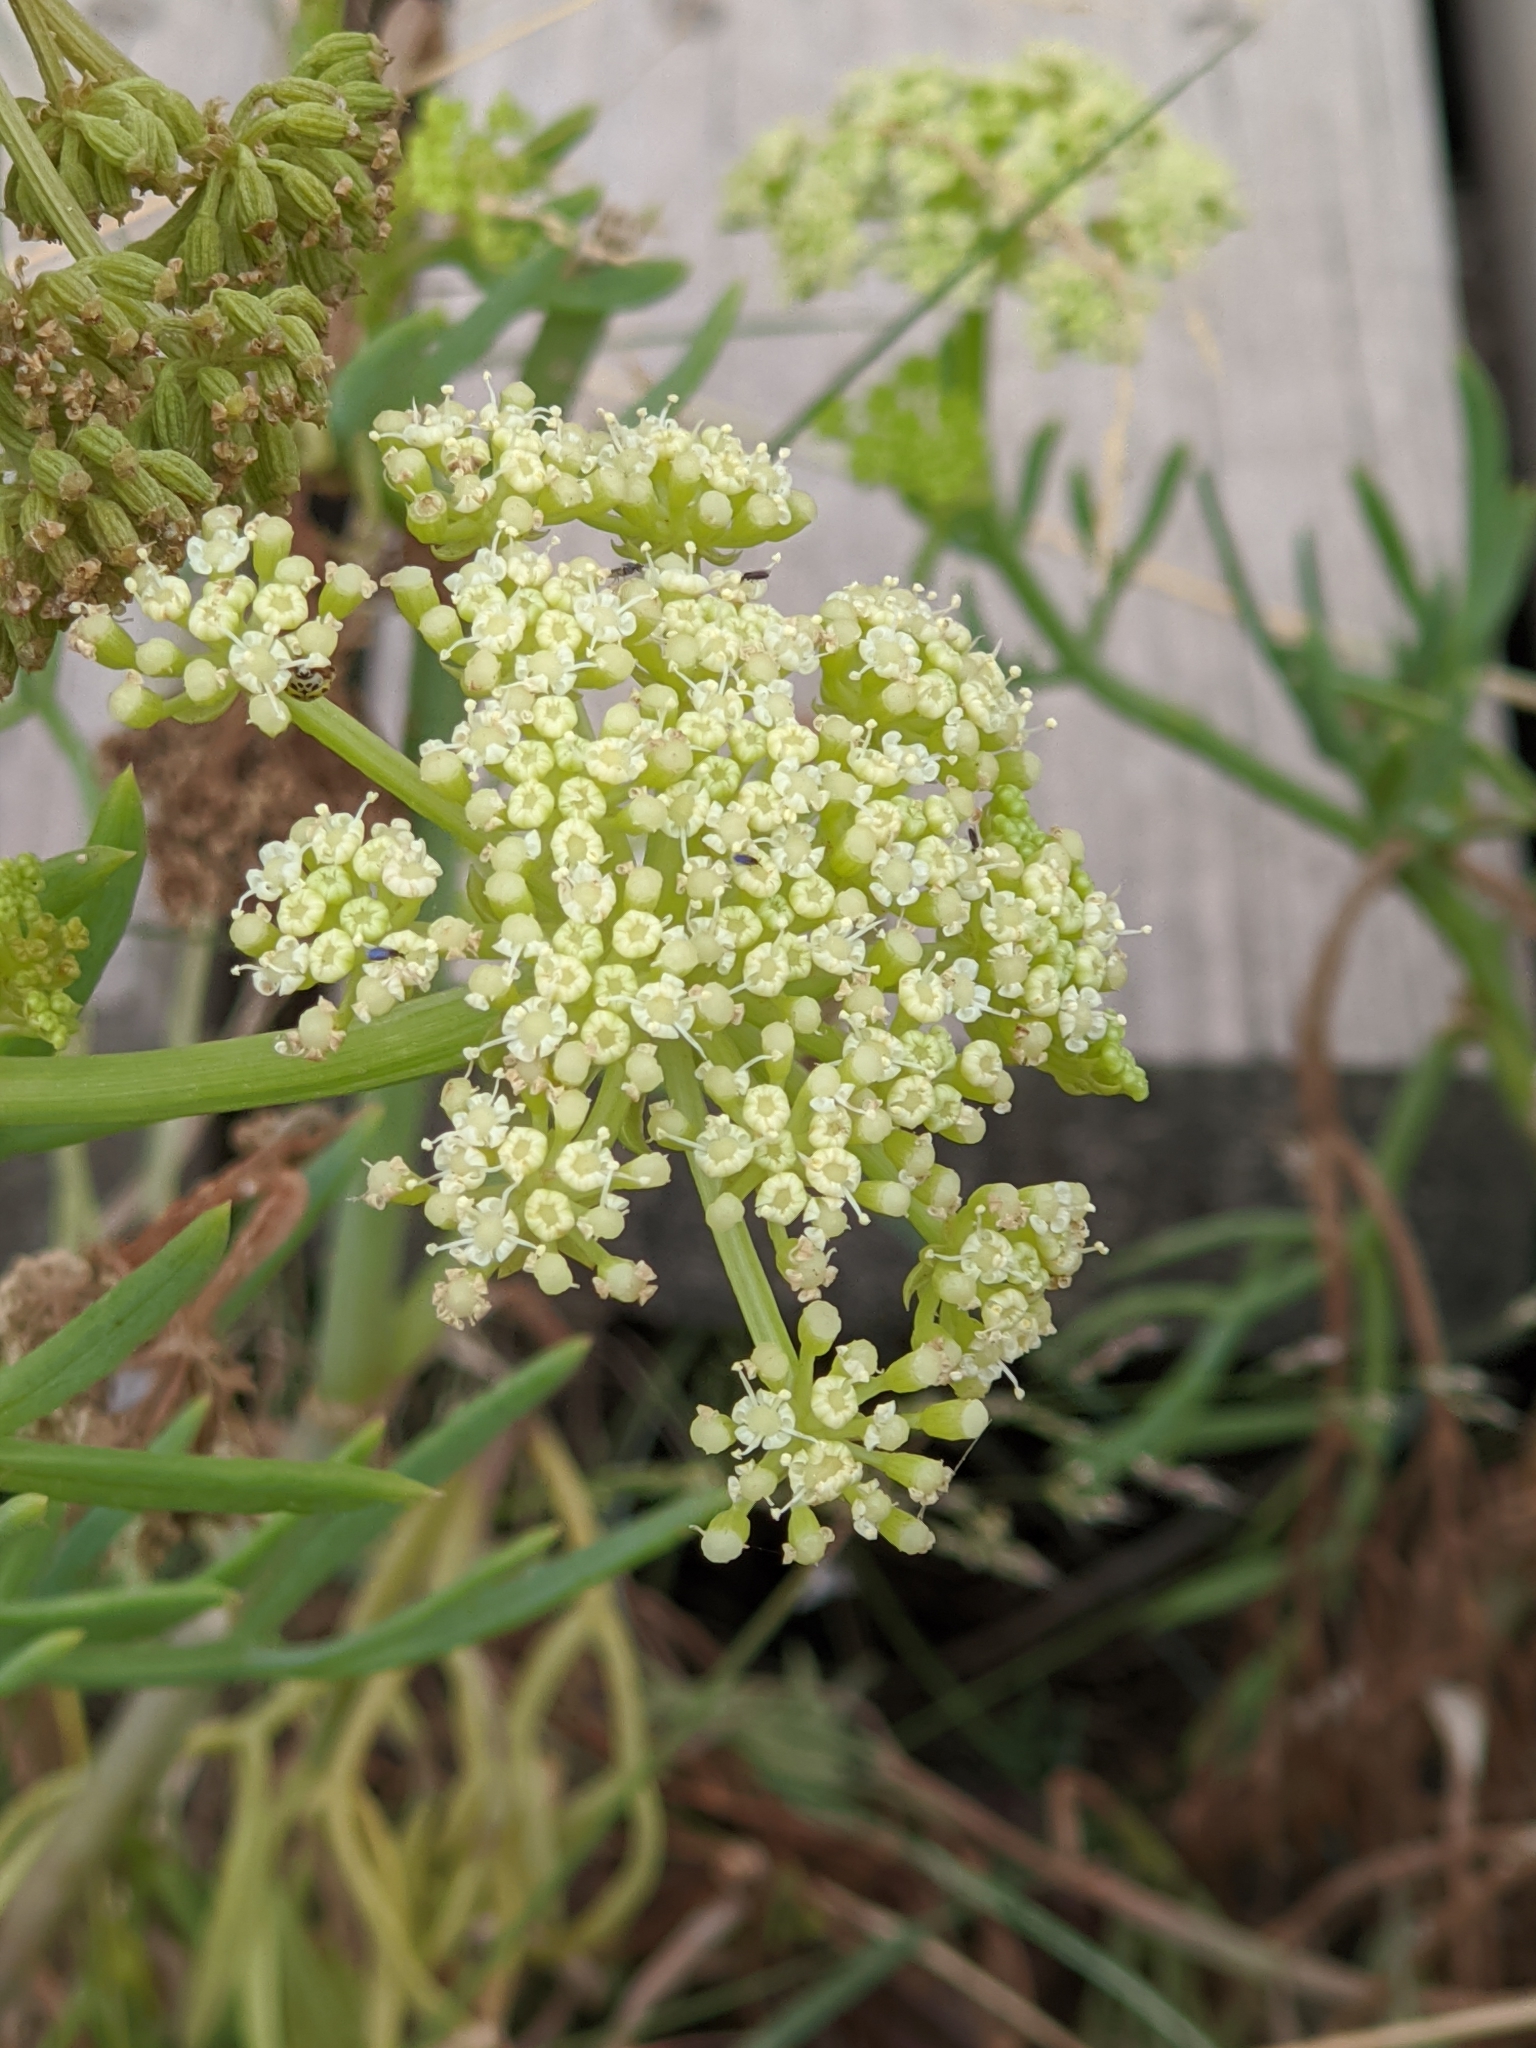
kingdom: Plantae
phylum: Tracheophyta
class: Magnoliopsida
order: Apiales
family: Apiaceae
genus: Crithmum
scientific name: Crithmum maritimum
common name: Rock samphire
